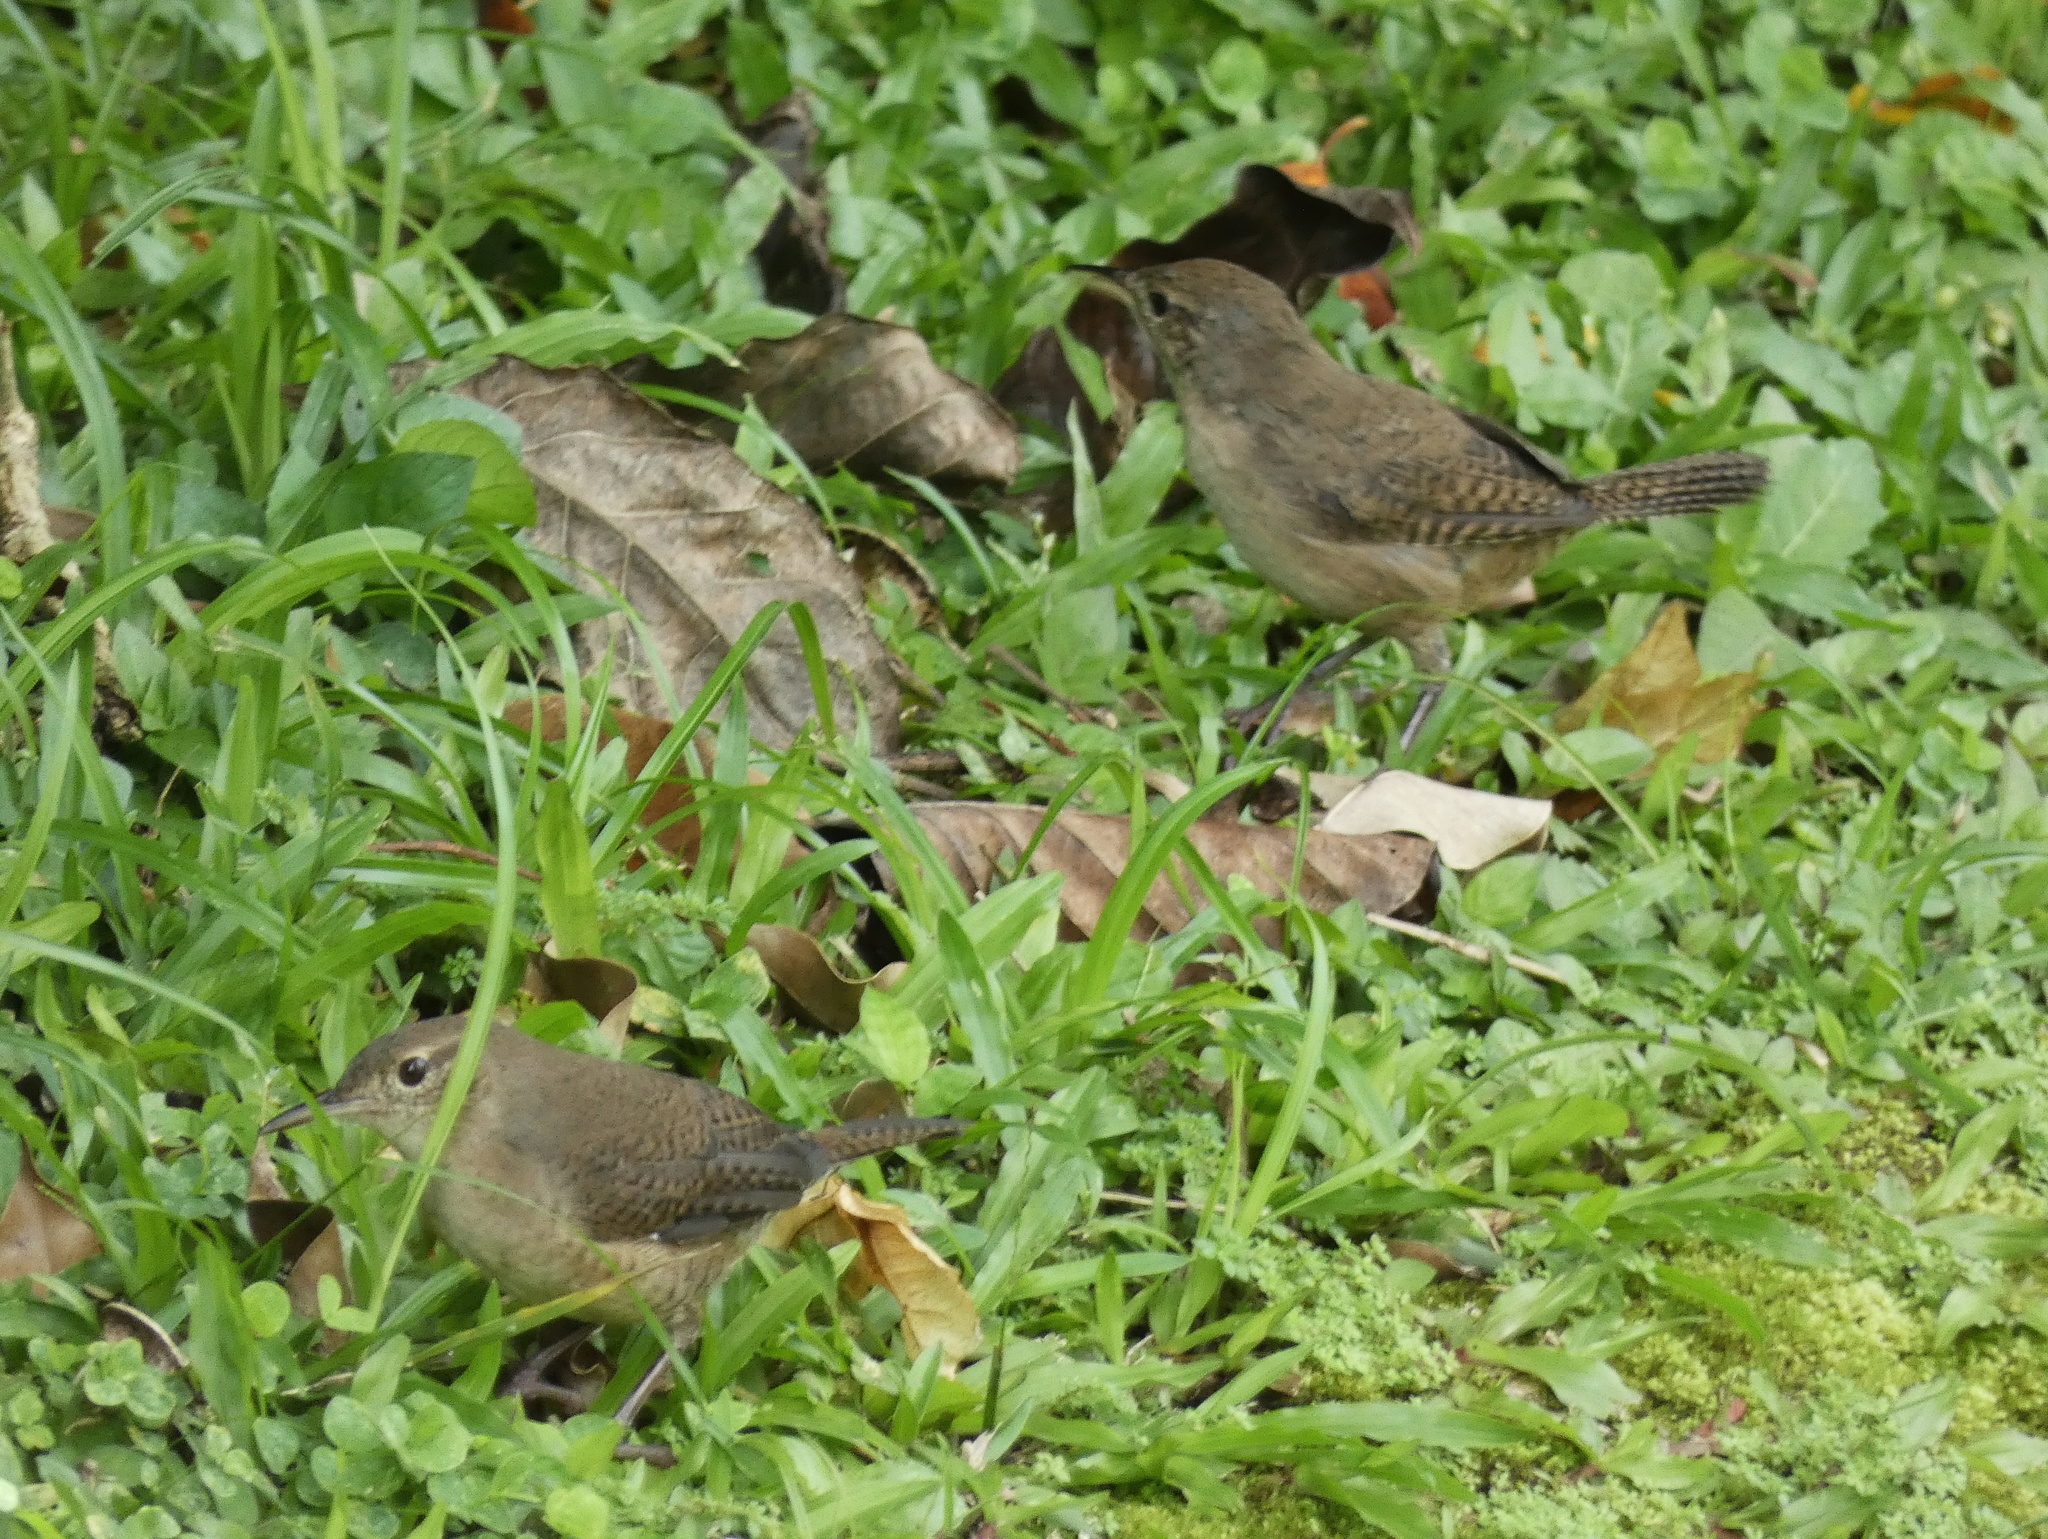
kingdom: Animalia
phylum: Chordata
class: Aves
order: Passeriformes
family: Troglodytidae
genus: Troglodytes
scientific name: Troglodytes aedon
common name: House wren
